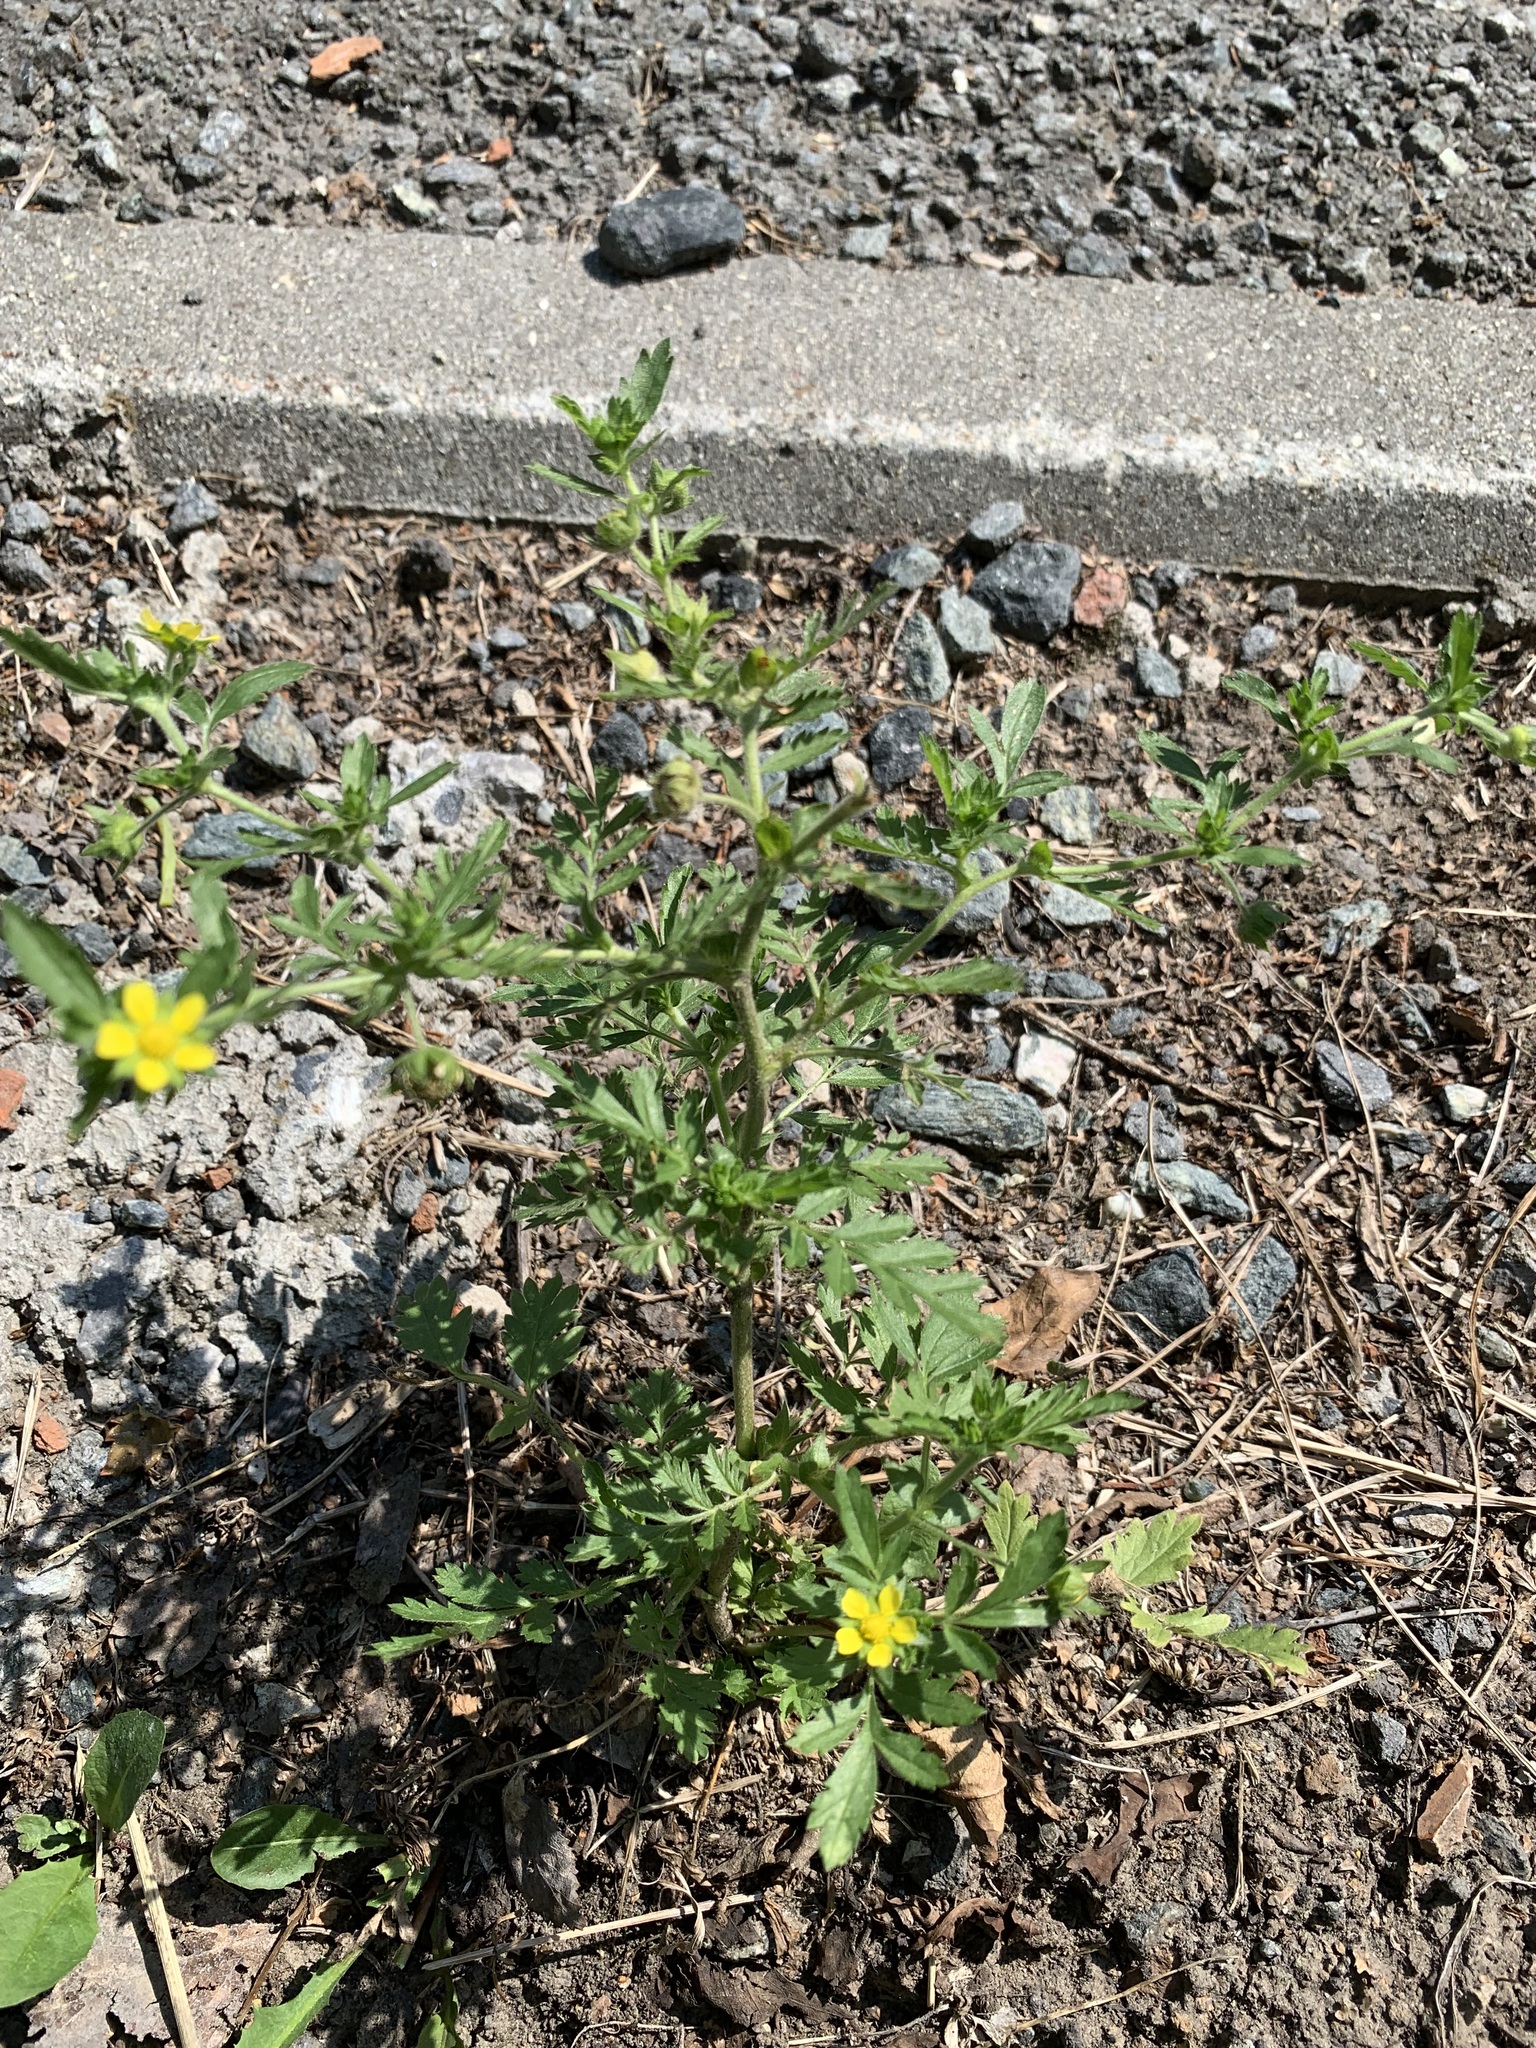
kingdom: Plantae
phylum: Tracheophyta
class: Magnoliopsida
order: Rosales
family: Rosaceae
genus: Potentilla
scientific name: Potentilla supina
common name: Prostrate cinquefoil
